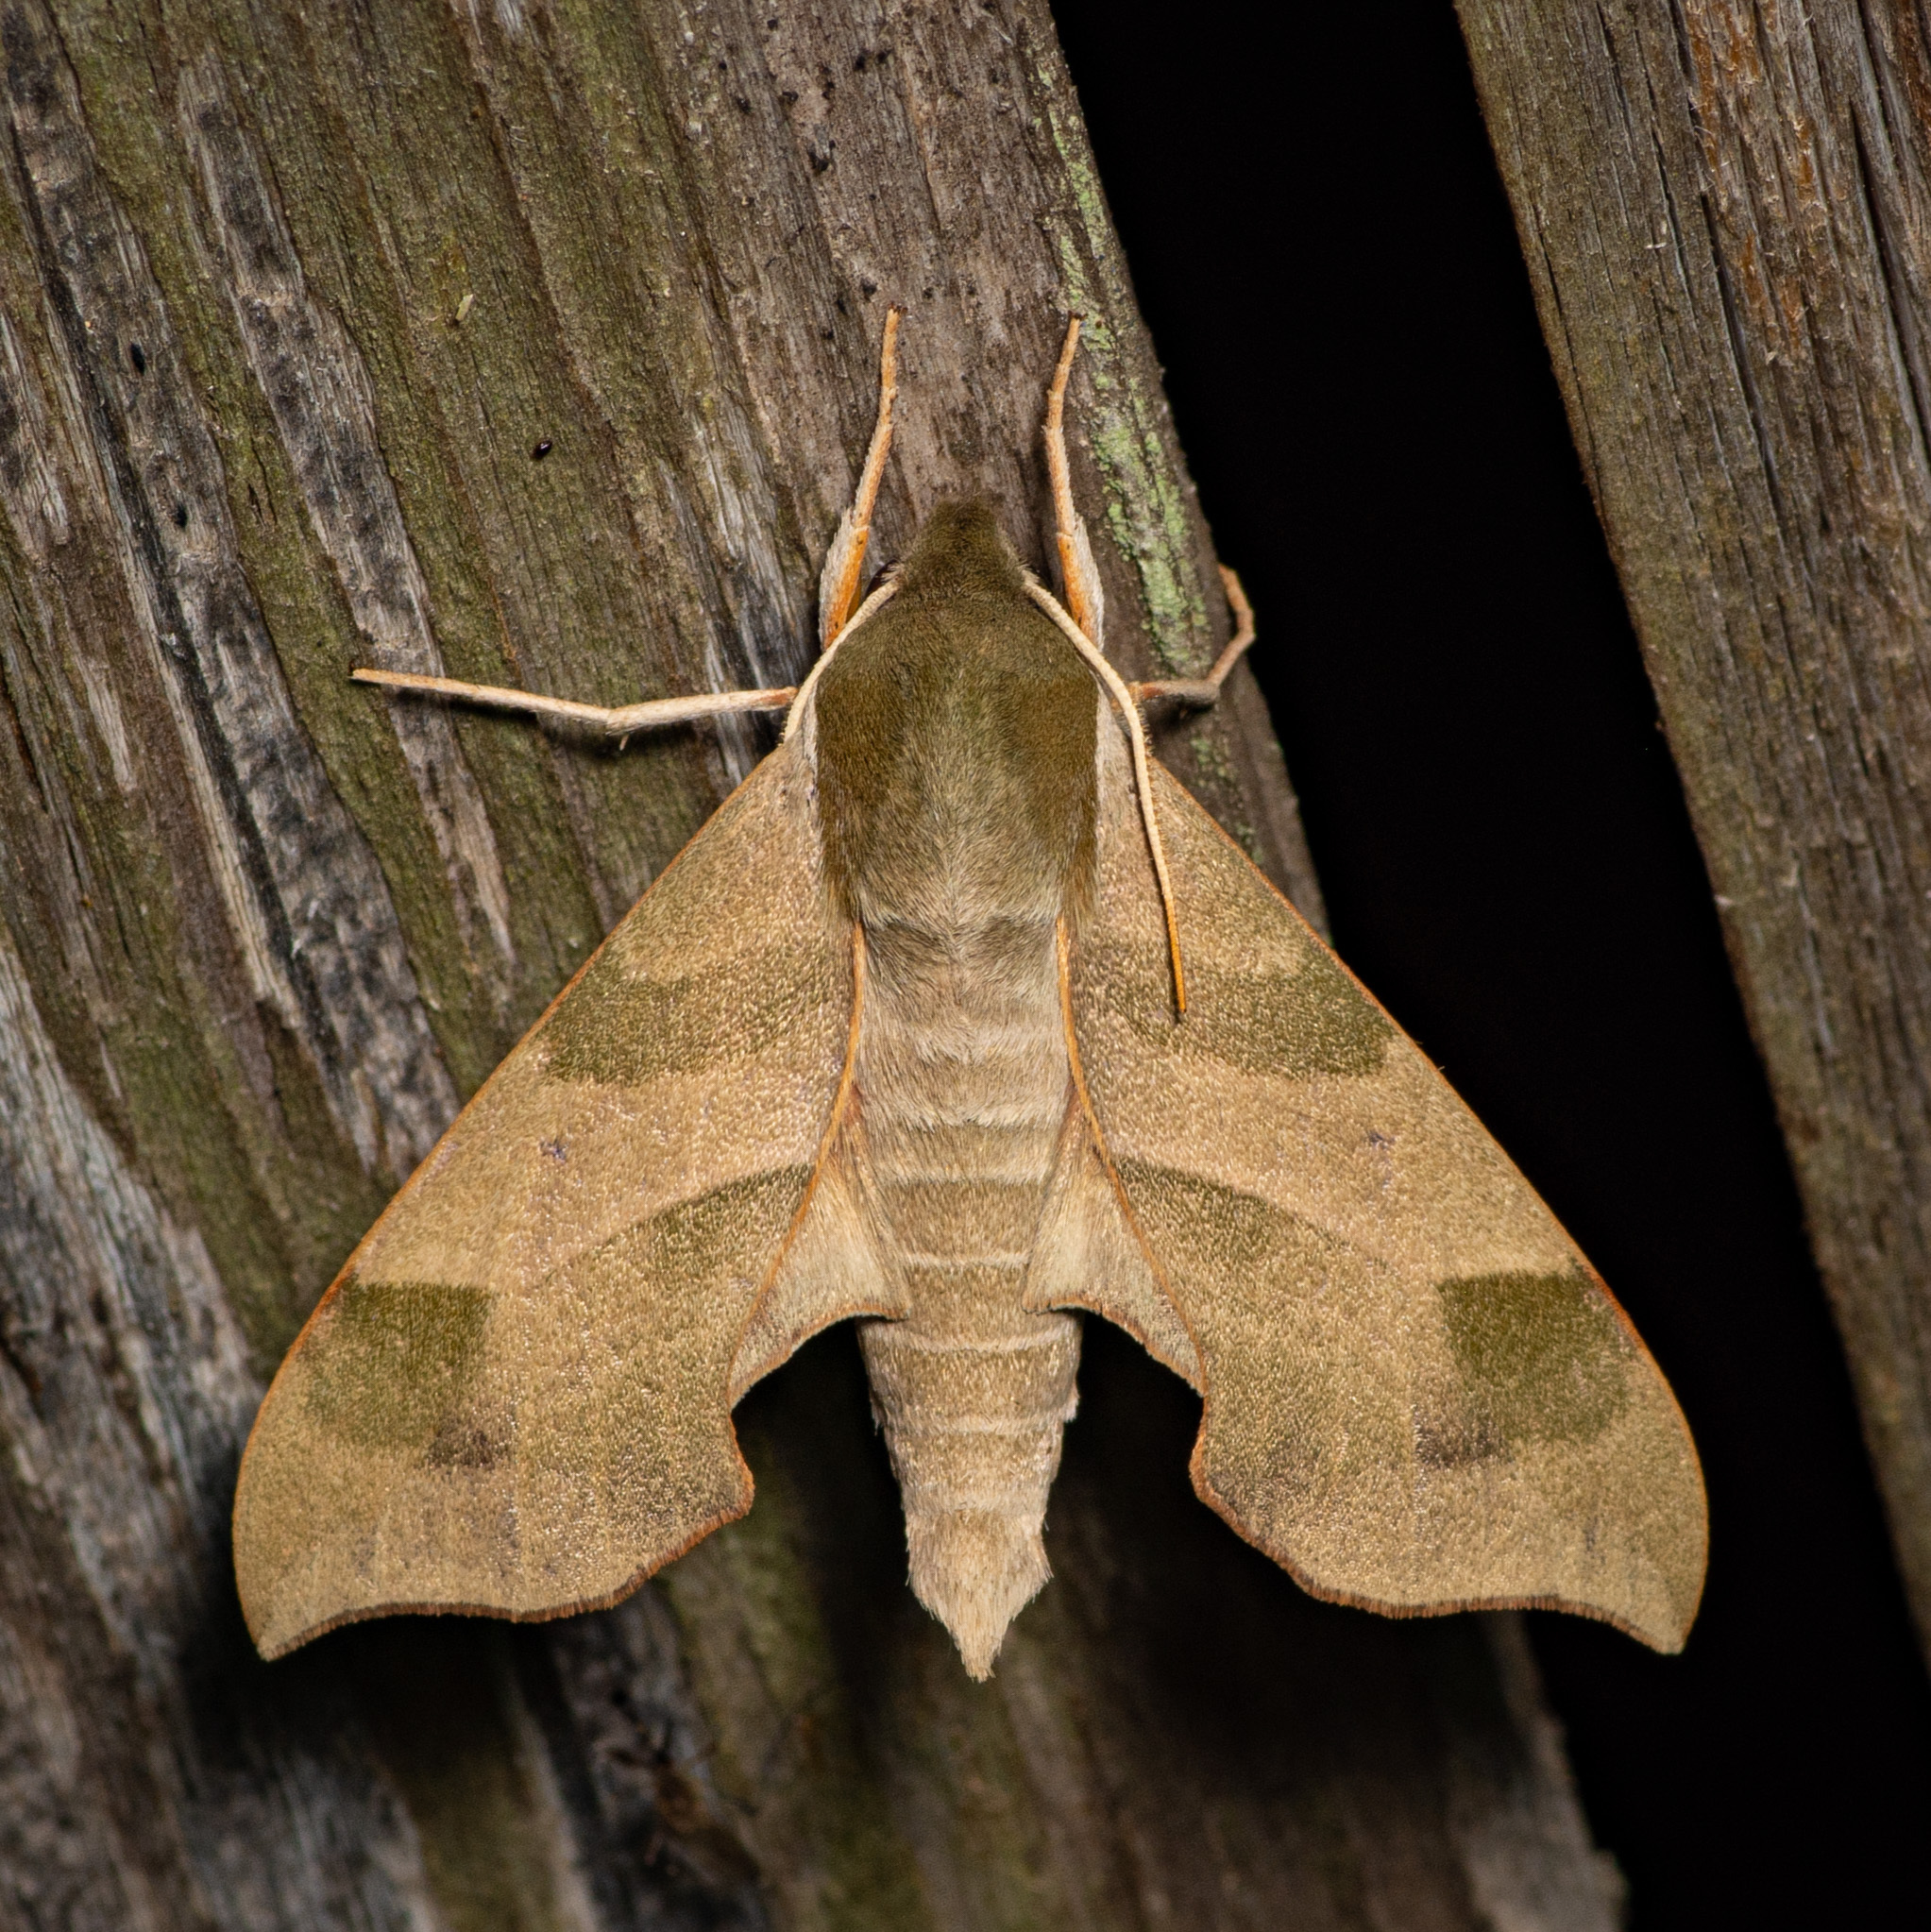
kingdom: Animalia
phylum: Arthropoda
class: Insecta
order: Lepidoptera
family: Sphingidae
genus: Darapsa
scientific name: Darapsa myron
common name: Hog sphinx
